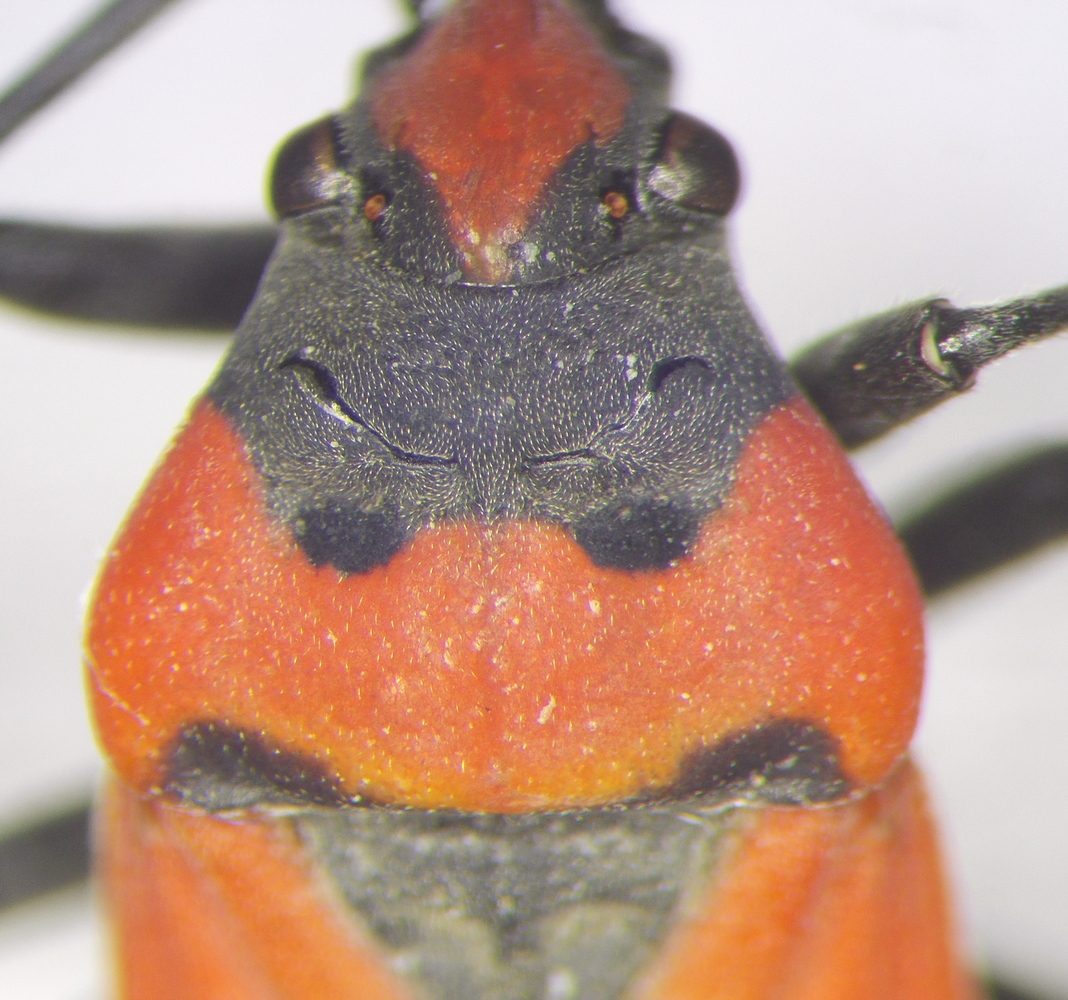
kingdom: Animalia
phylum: Arthropoda
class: Insecta
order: Hemiptera
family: Lygaeidae
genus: Lygaeus
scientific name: Lygaeus simulans
